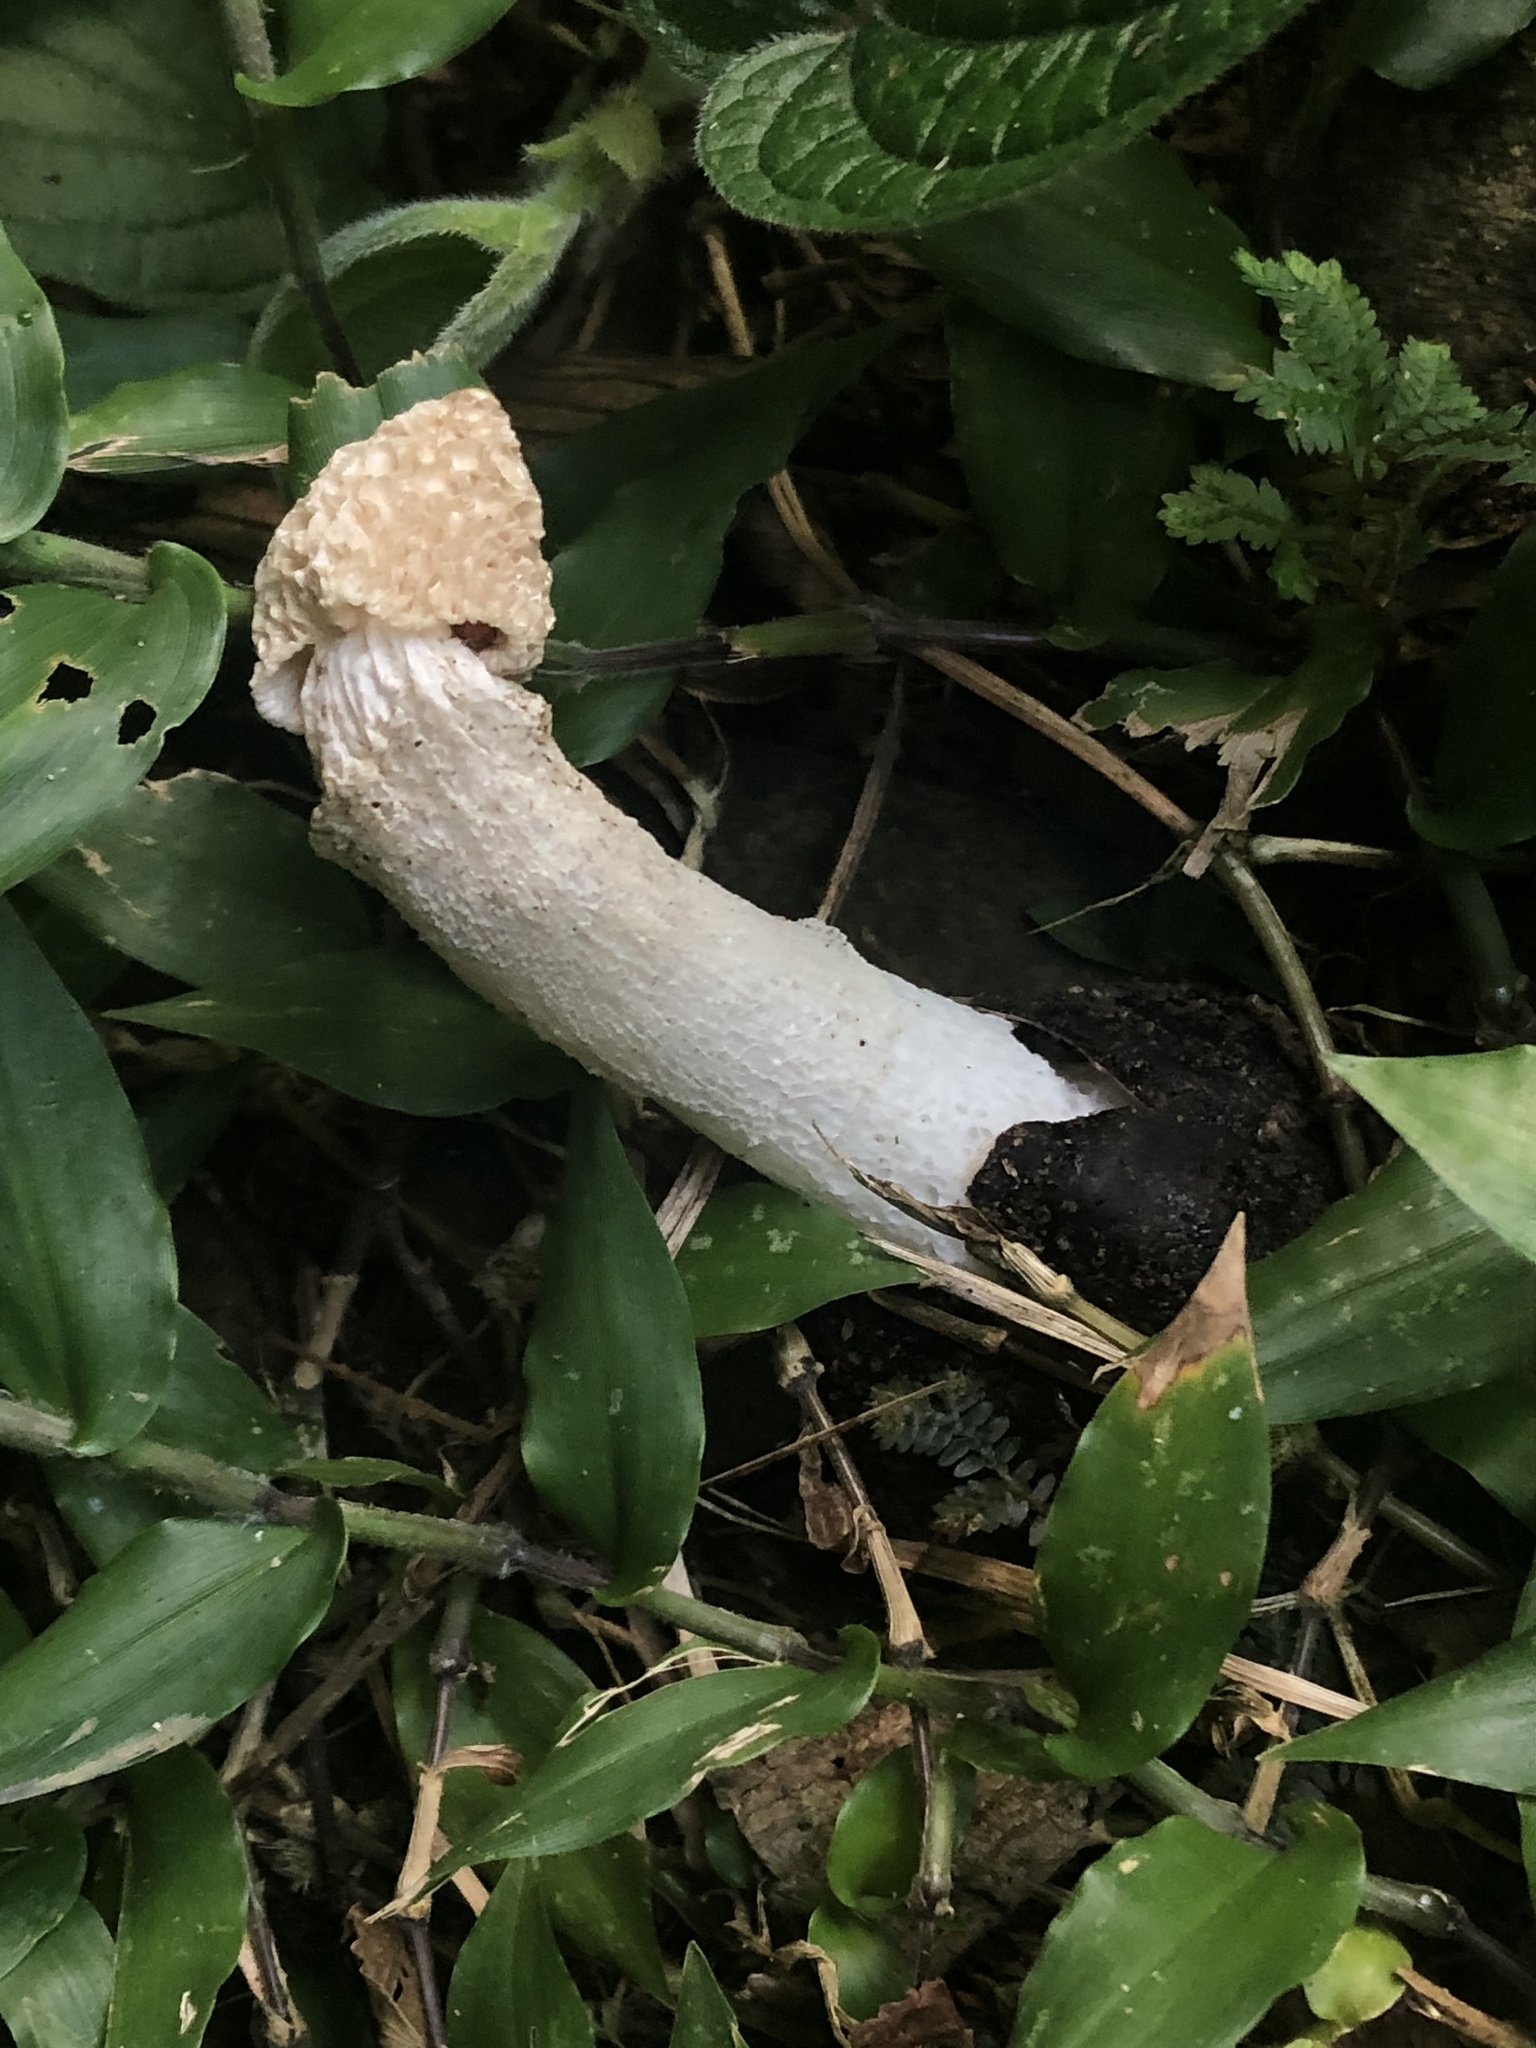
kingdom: Fungi
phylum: Basidiomycota
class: Agaricomycetes
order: Phallales
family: Phallaceae
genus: Phallus
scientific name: Phallus denigricans
